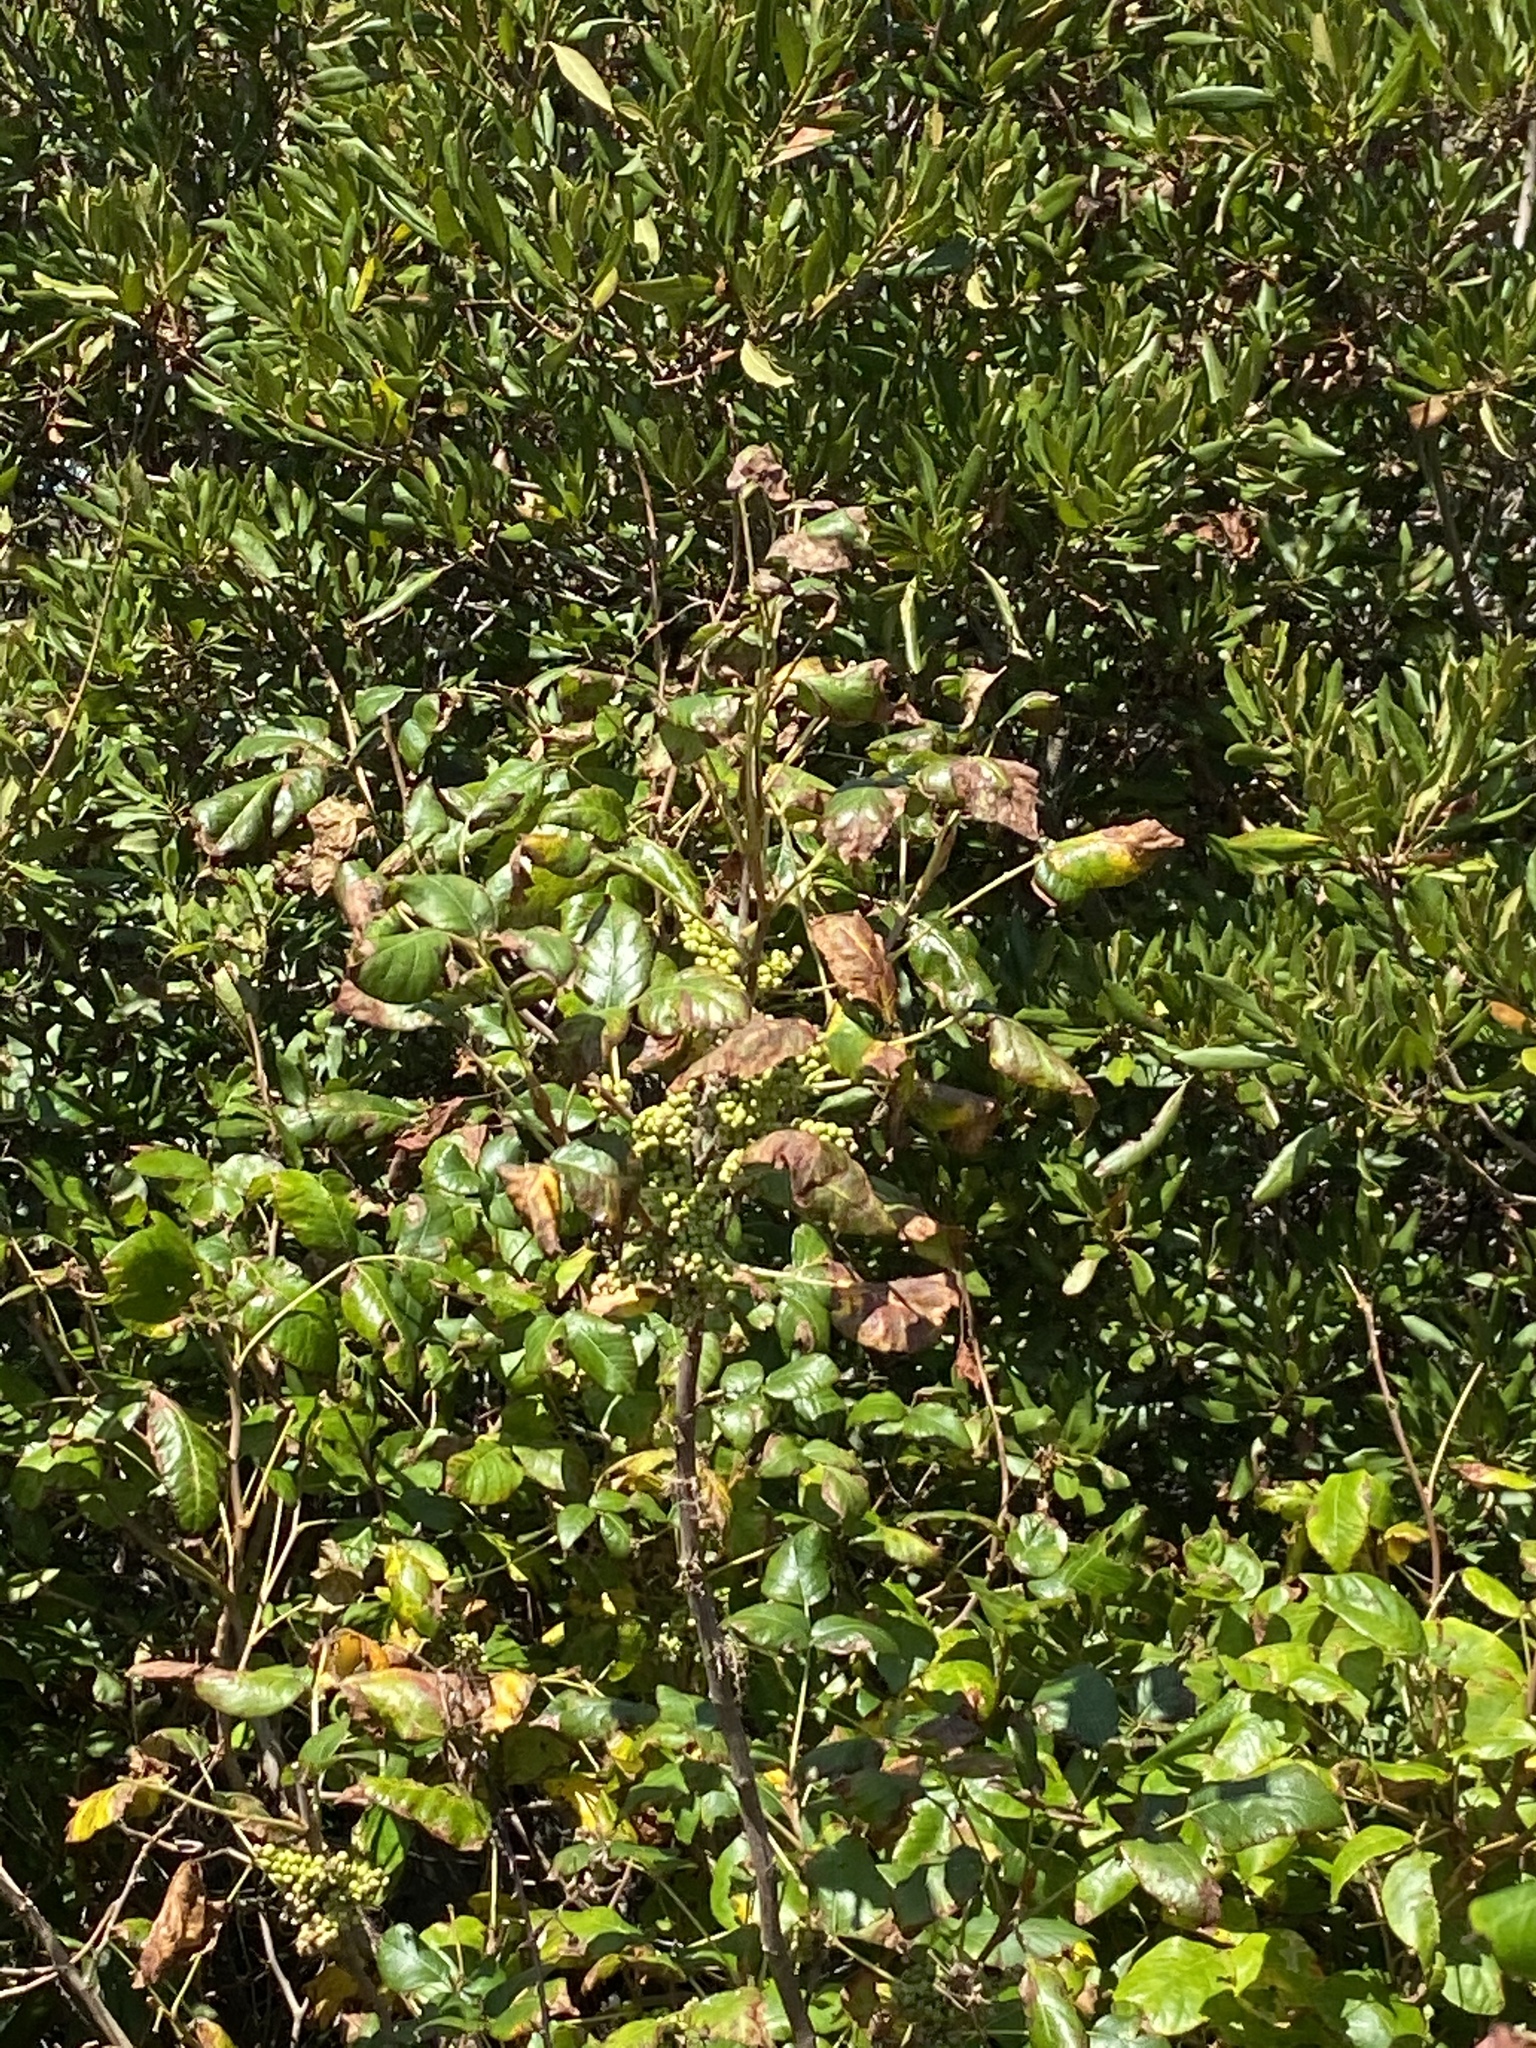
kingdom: Plantae
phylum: Tracheophyta
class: Magnoliopsida
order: Sapindales
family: Anacardiaceae
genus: Toxicodendron
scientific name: Toxicodendron radicans
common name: Poison ivy
